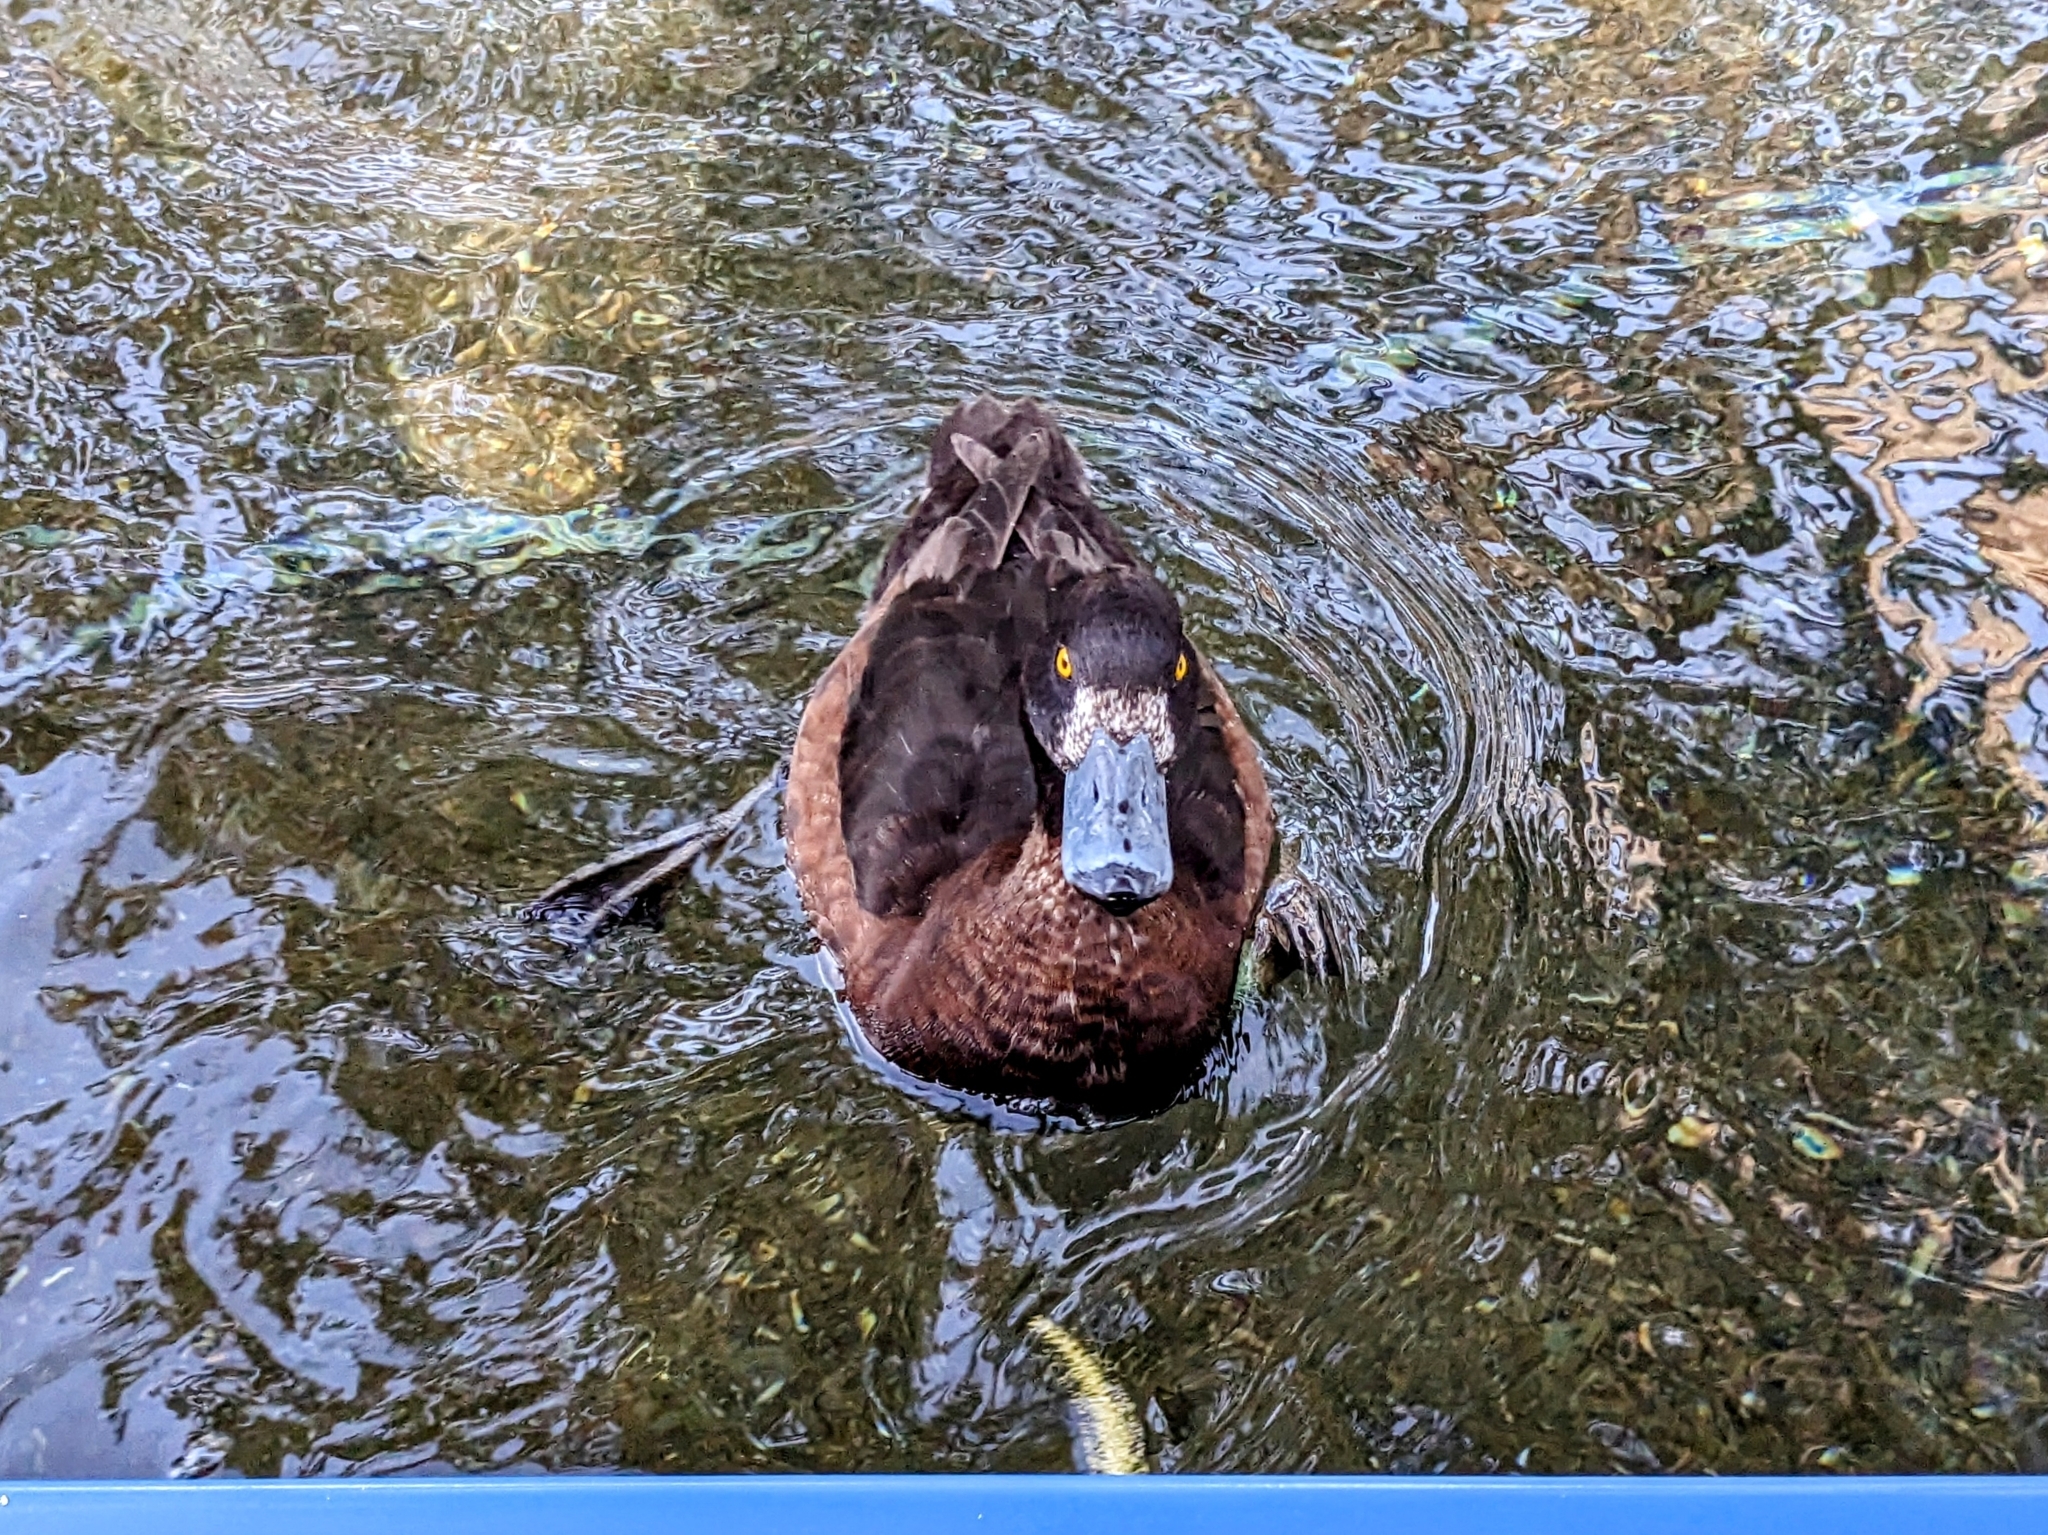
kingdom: Animalia
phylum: Chordata
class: Aves
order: Anseriformes
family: Anatidae
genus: Aythya
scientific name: Aythya fuligula
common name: Tufted duck
